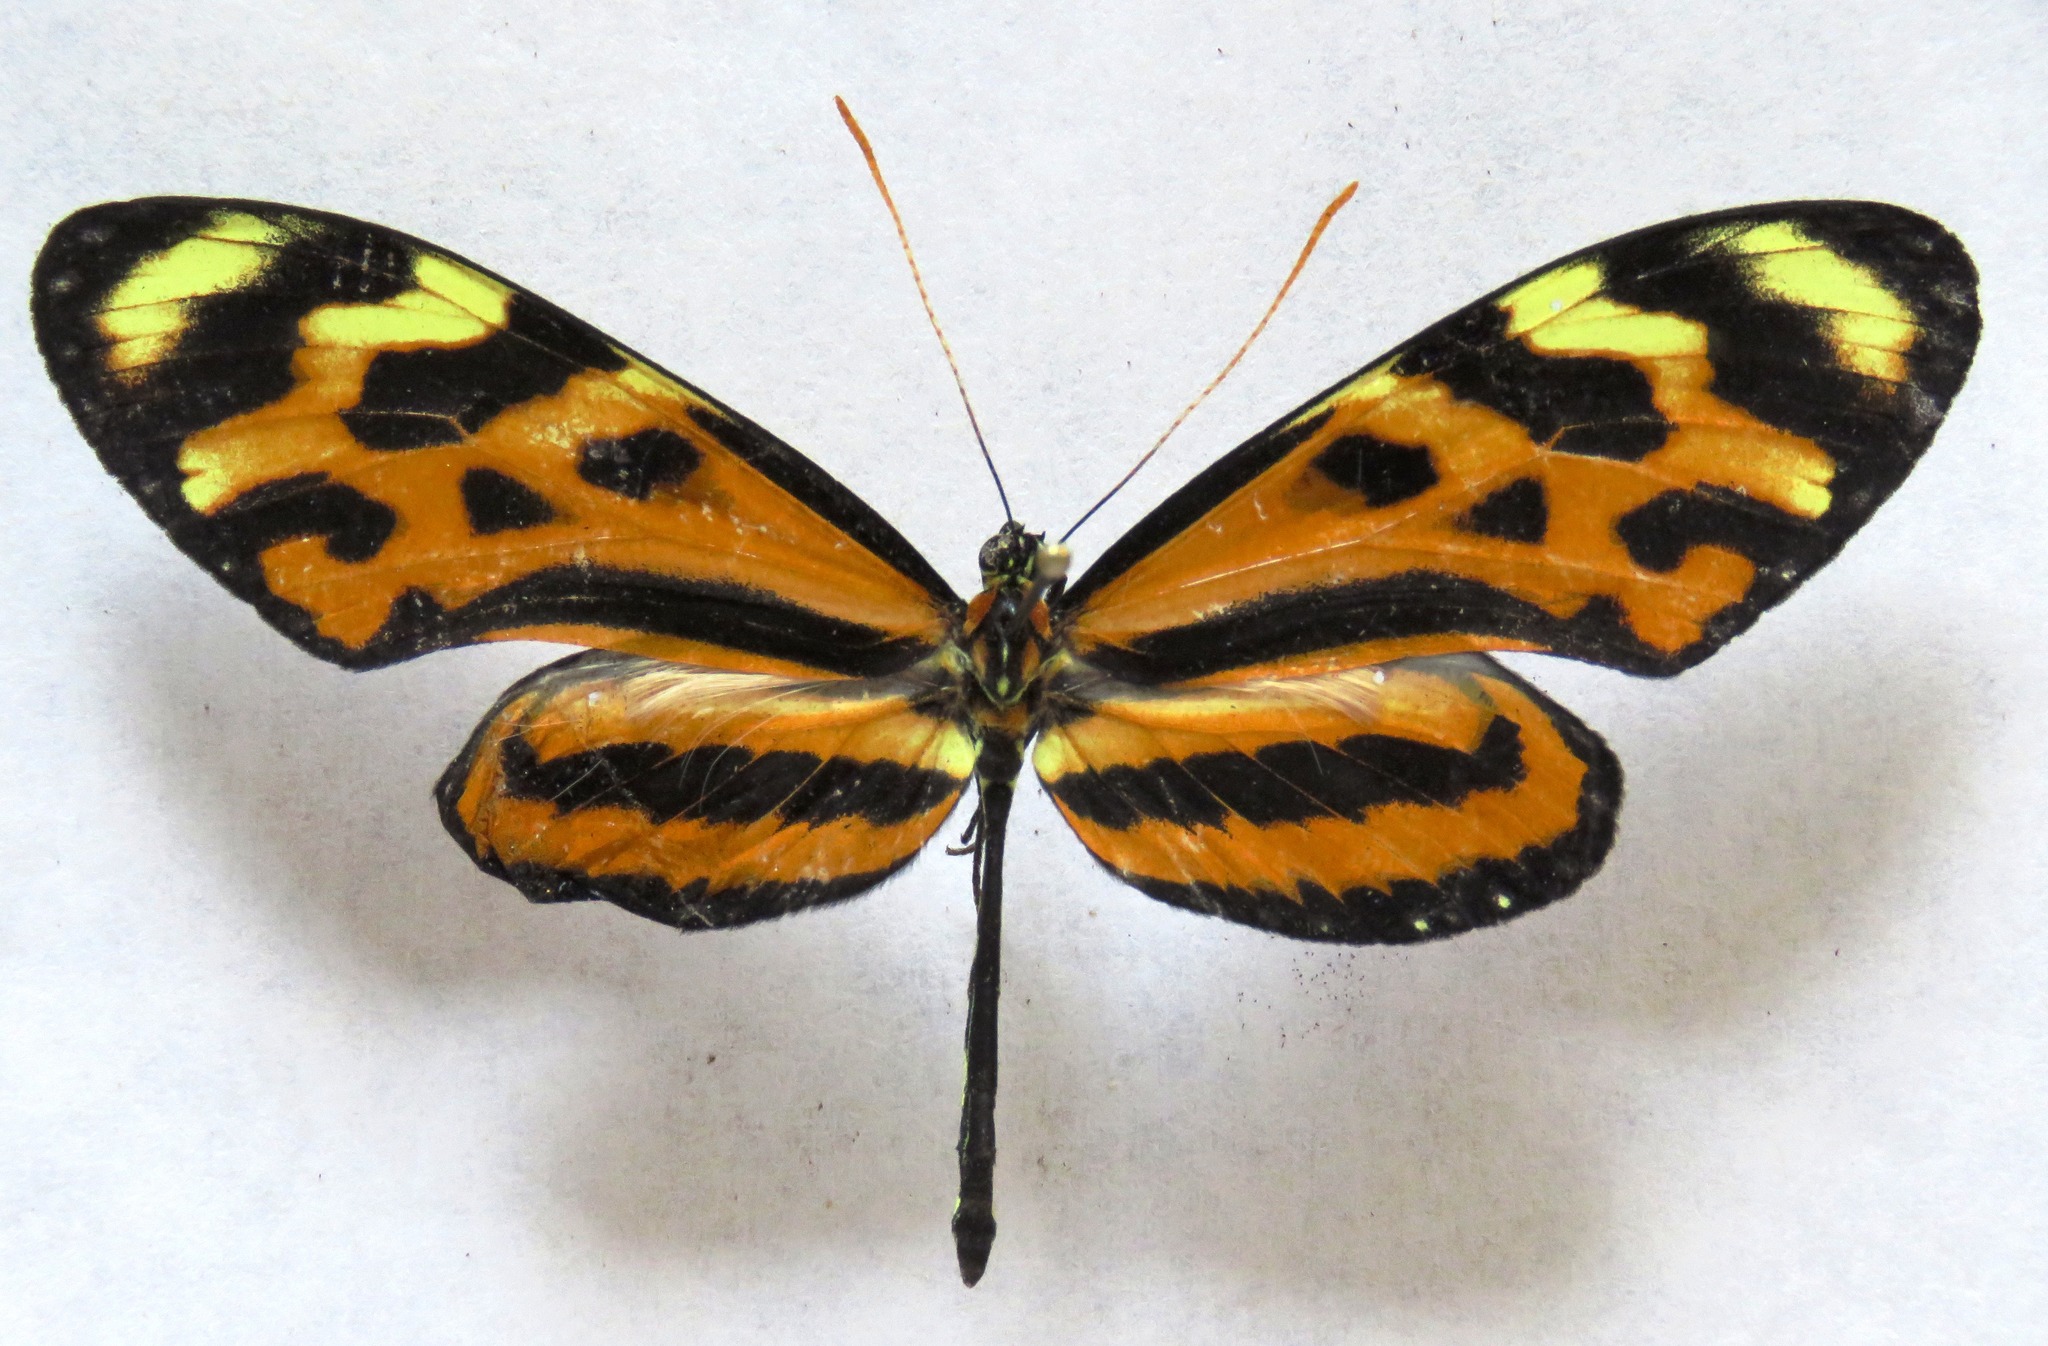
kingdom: Animalia
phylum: Arthropoda
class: Insecta
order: Lepidoptera
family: Nymphalidae
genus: Mechanitis
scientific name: Mechanitis lysimnia
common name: Lysimnia tigerwing
